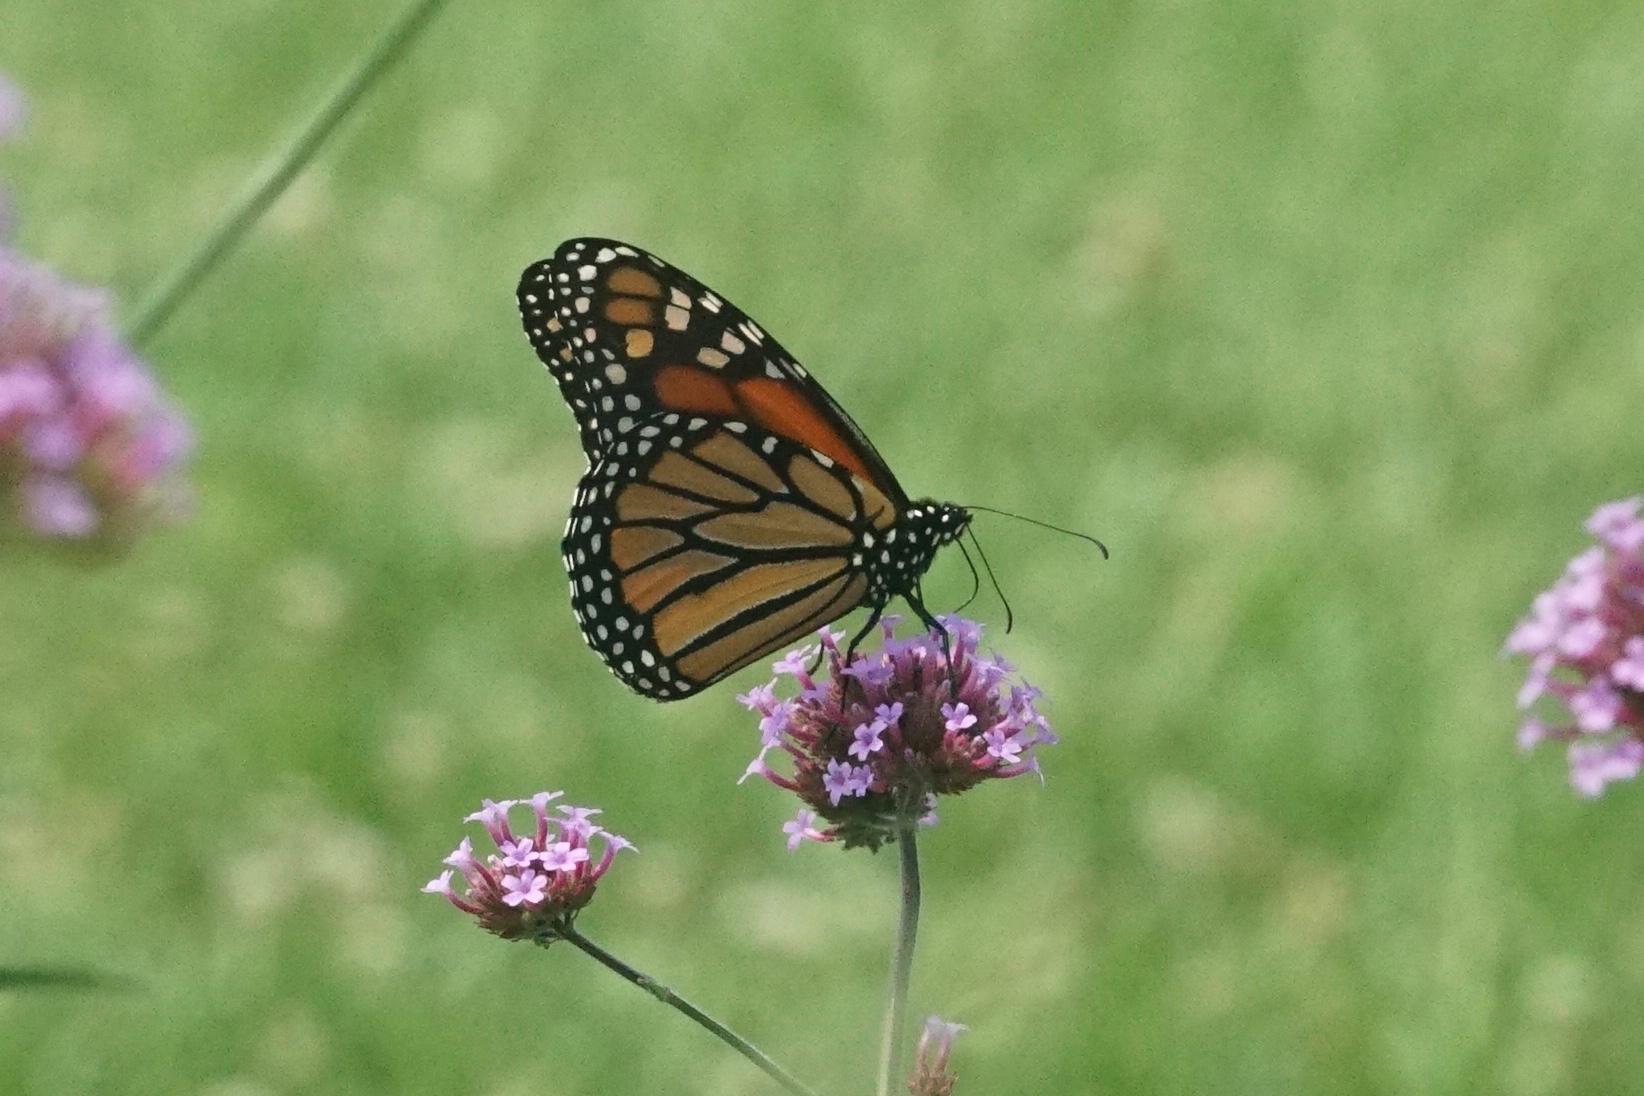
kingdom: Animalia
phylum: Arthropoda
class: Insecta
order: Lepidoptera
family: Nymphalidae
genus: Danaus
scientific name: Danaus plexippus
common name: Monarch
